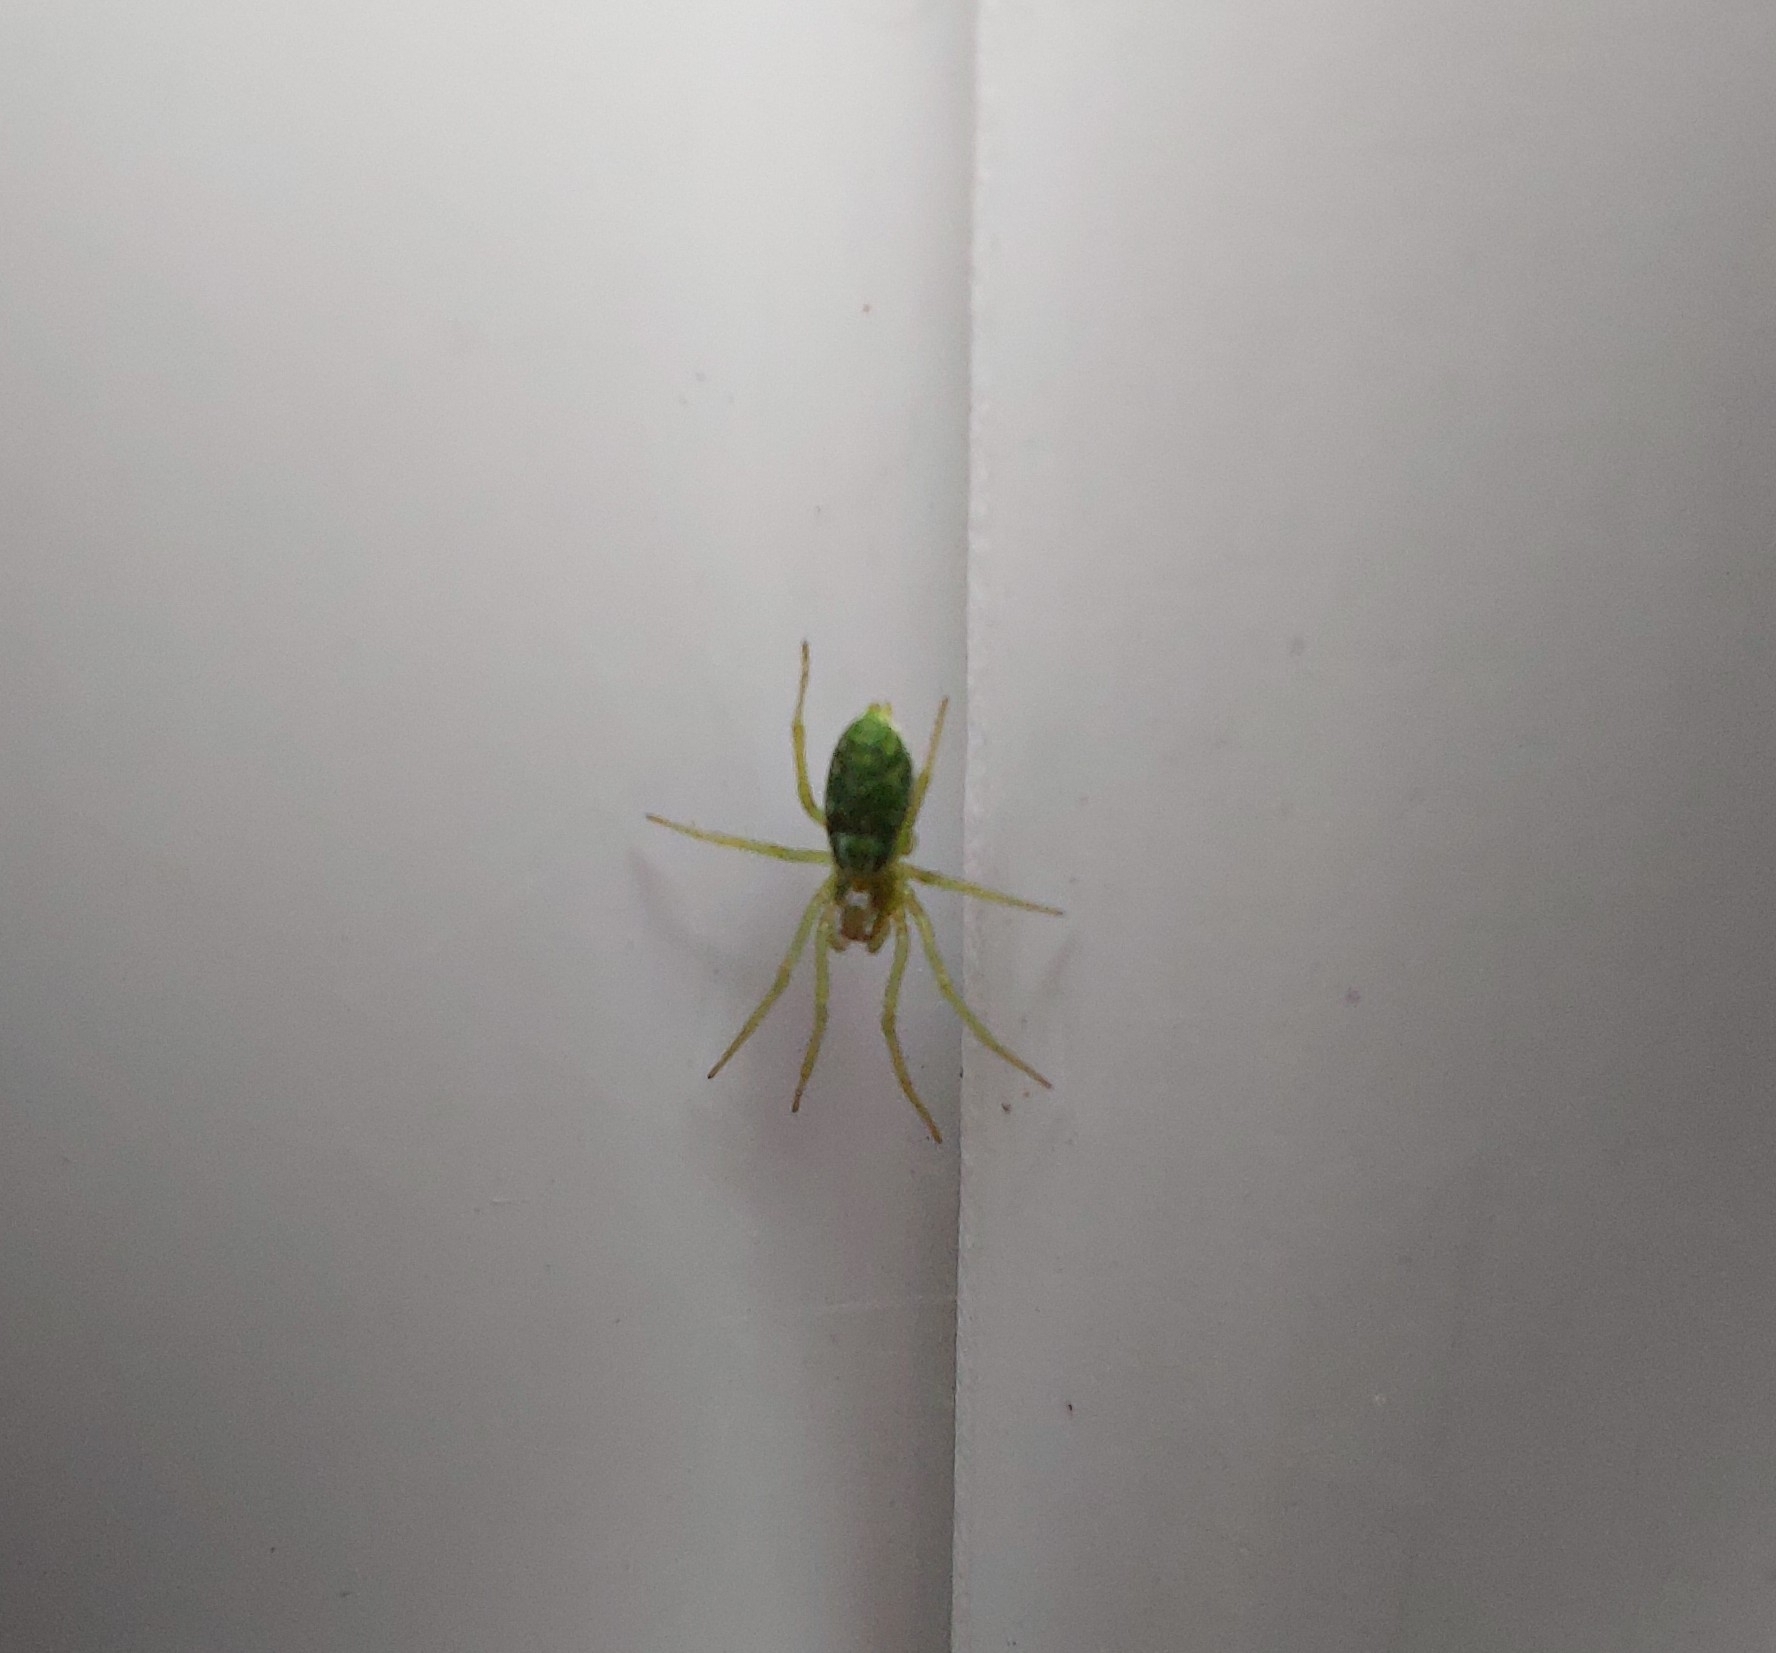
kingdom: Animalia
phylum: Arthropoda
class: Arachnida
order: Araneae
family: Dictynidae
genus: Nigma
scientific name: Nigma walckenaeri
